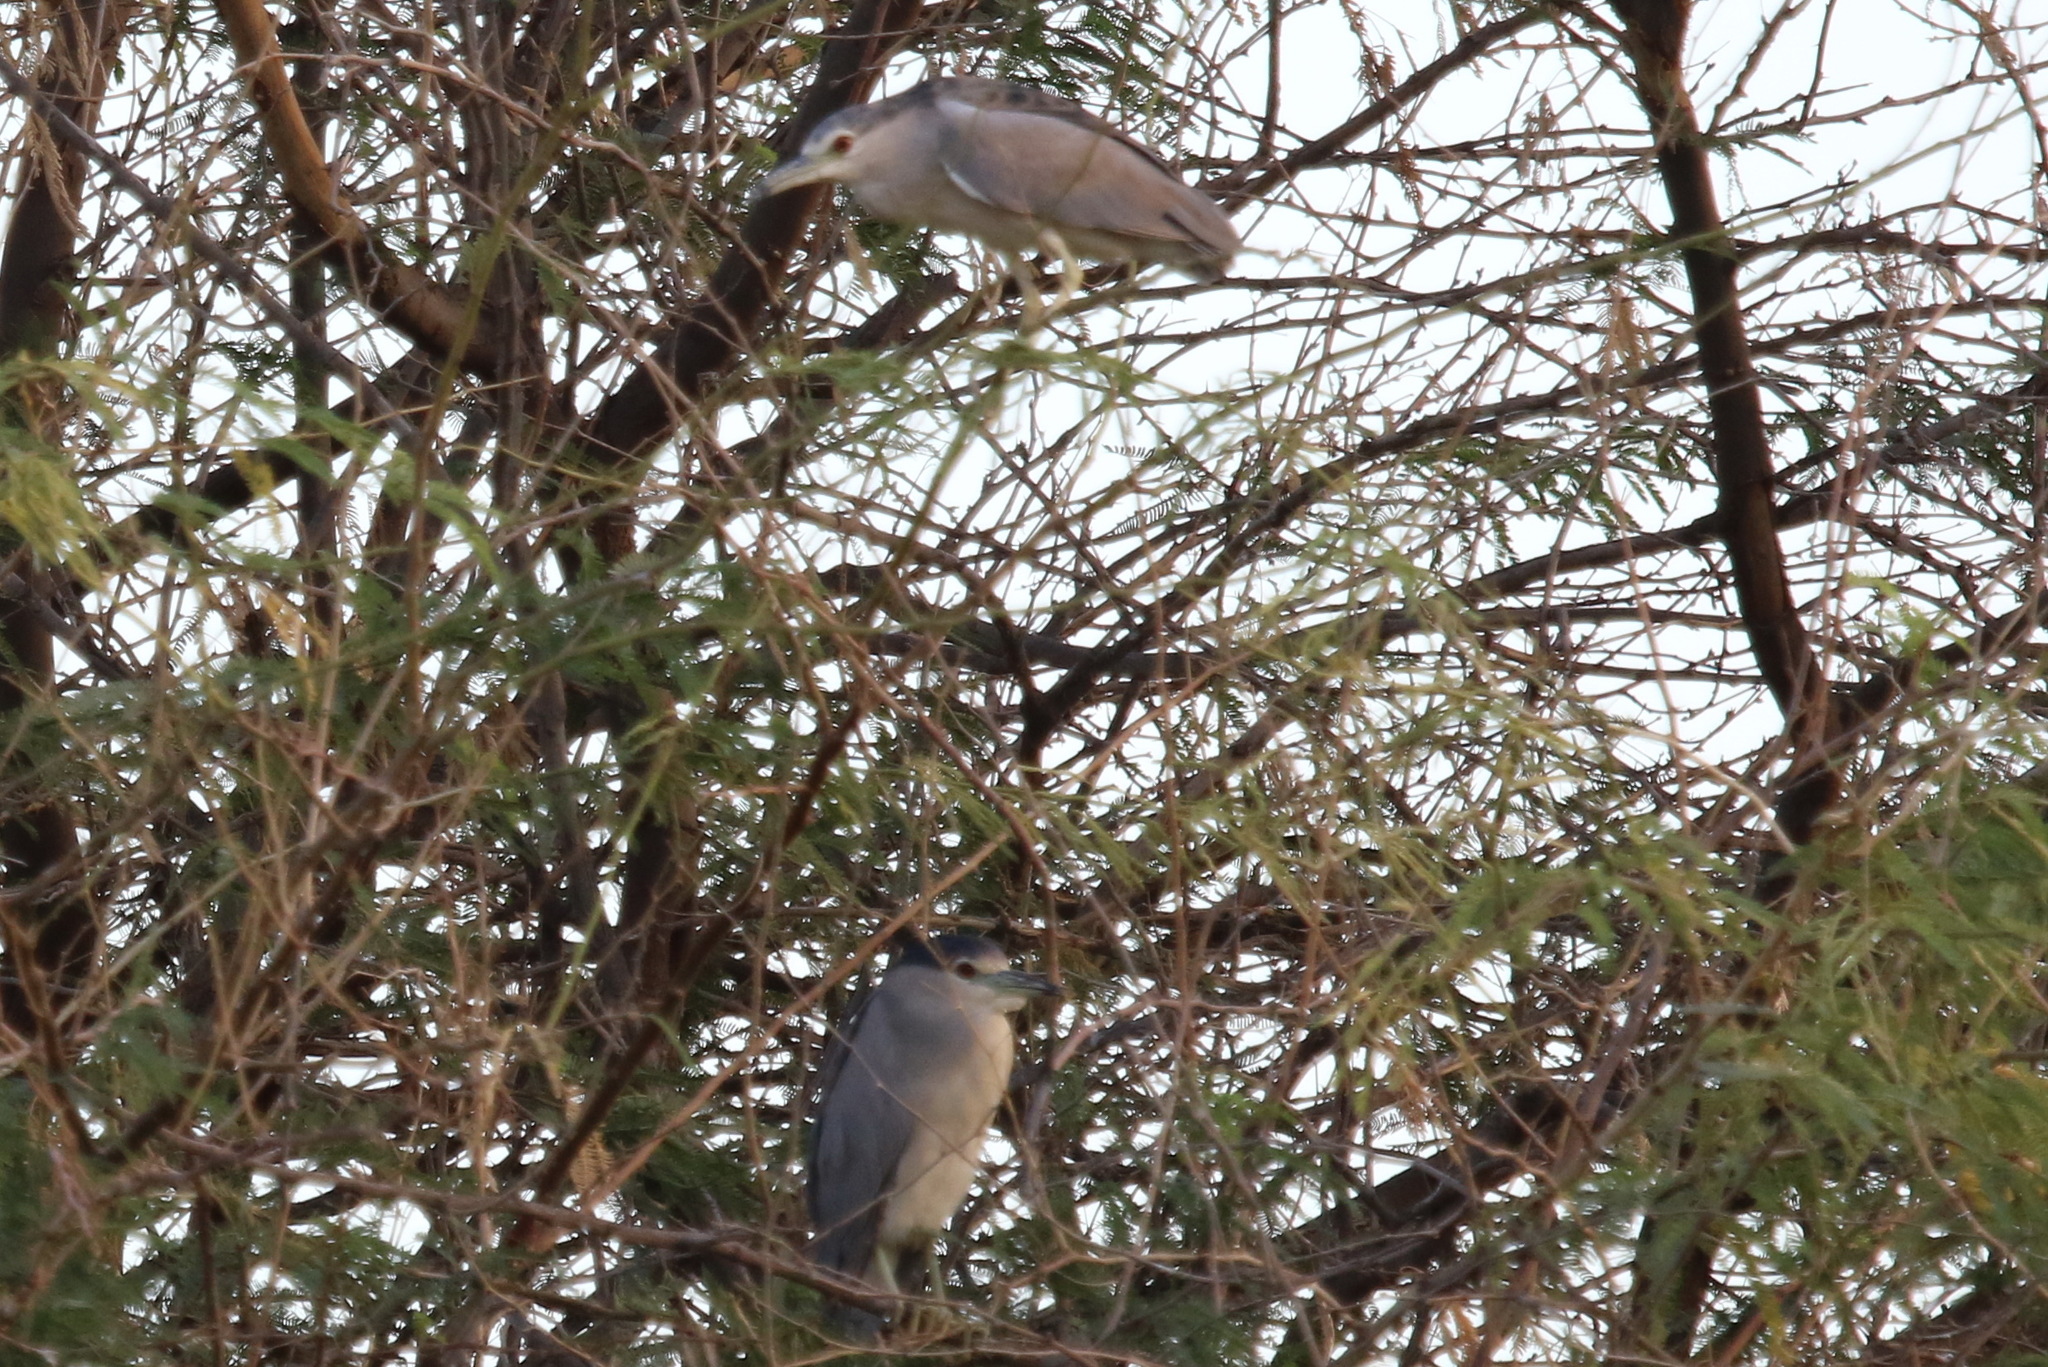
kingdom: Animalia
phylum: Chordata
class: Aves
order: Pelecaniformes
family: Ardeidae
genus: Nycticorax
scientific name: Nycticorax nycticorax
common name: Black-crowned night heron
